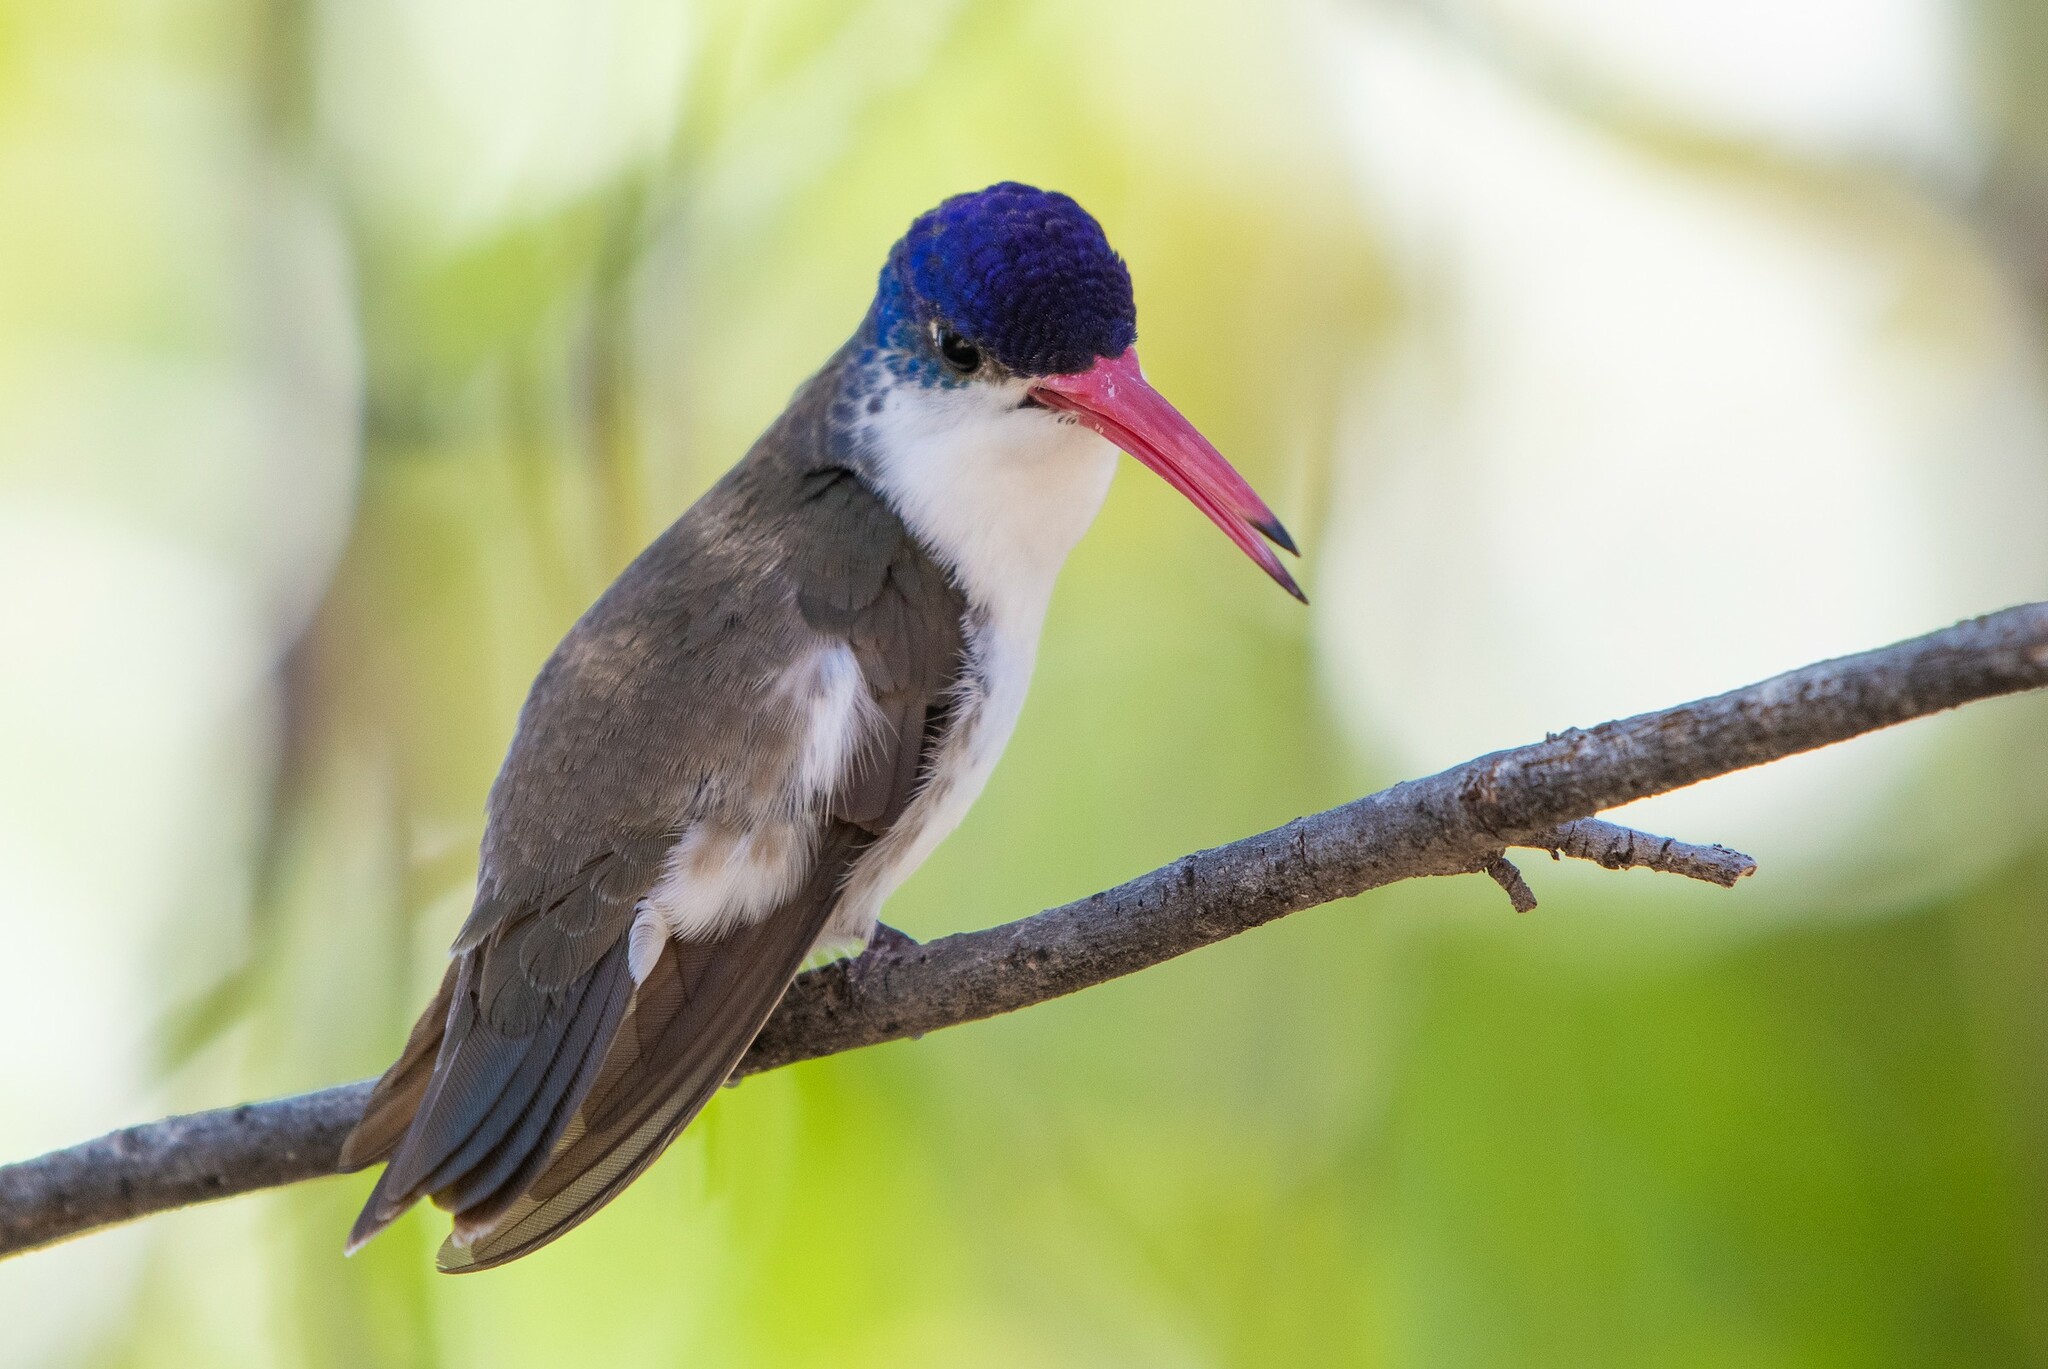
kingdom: Animalia
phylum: Chordata
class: Aves
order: Apodiformes
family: Trochilidae
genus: Leucolia
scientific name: Leucolia violiceps
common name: Violet-crowned hummingbird
